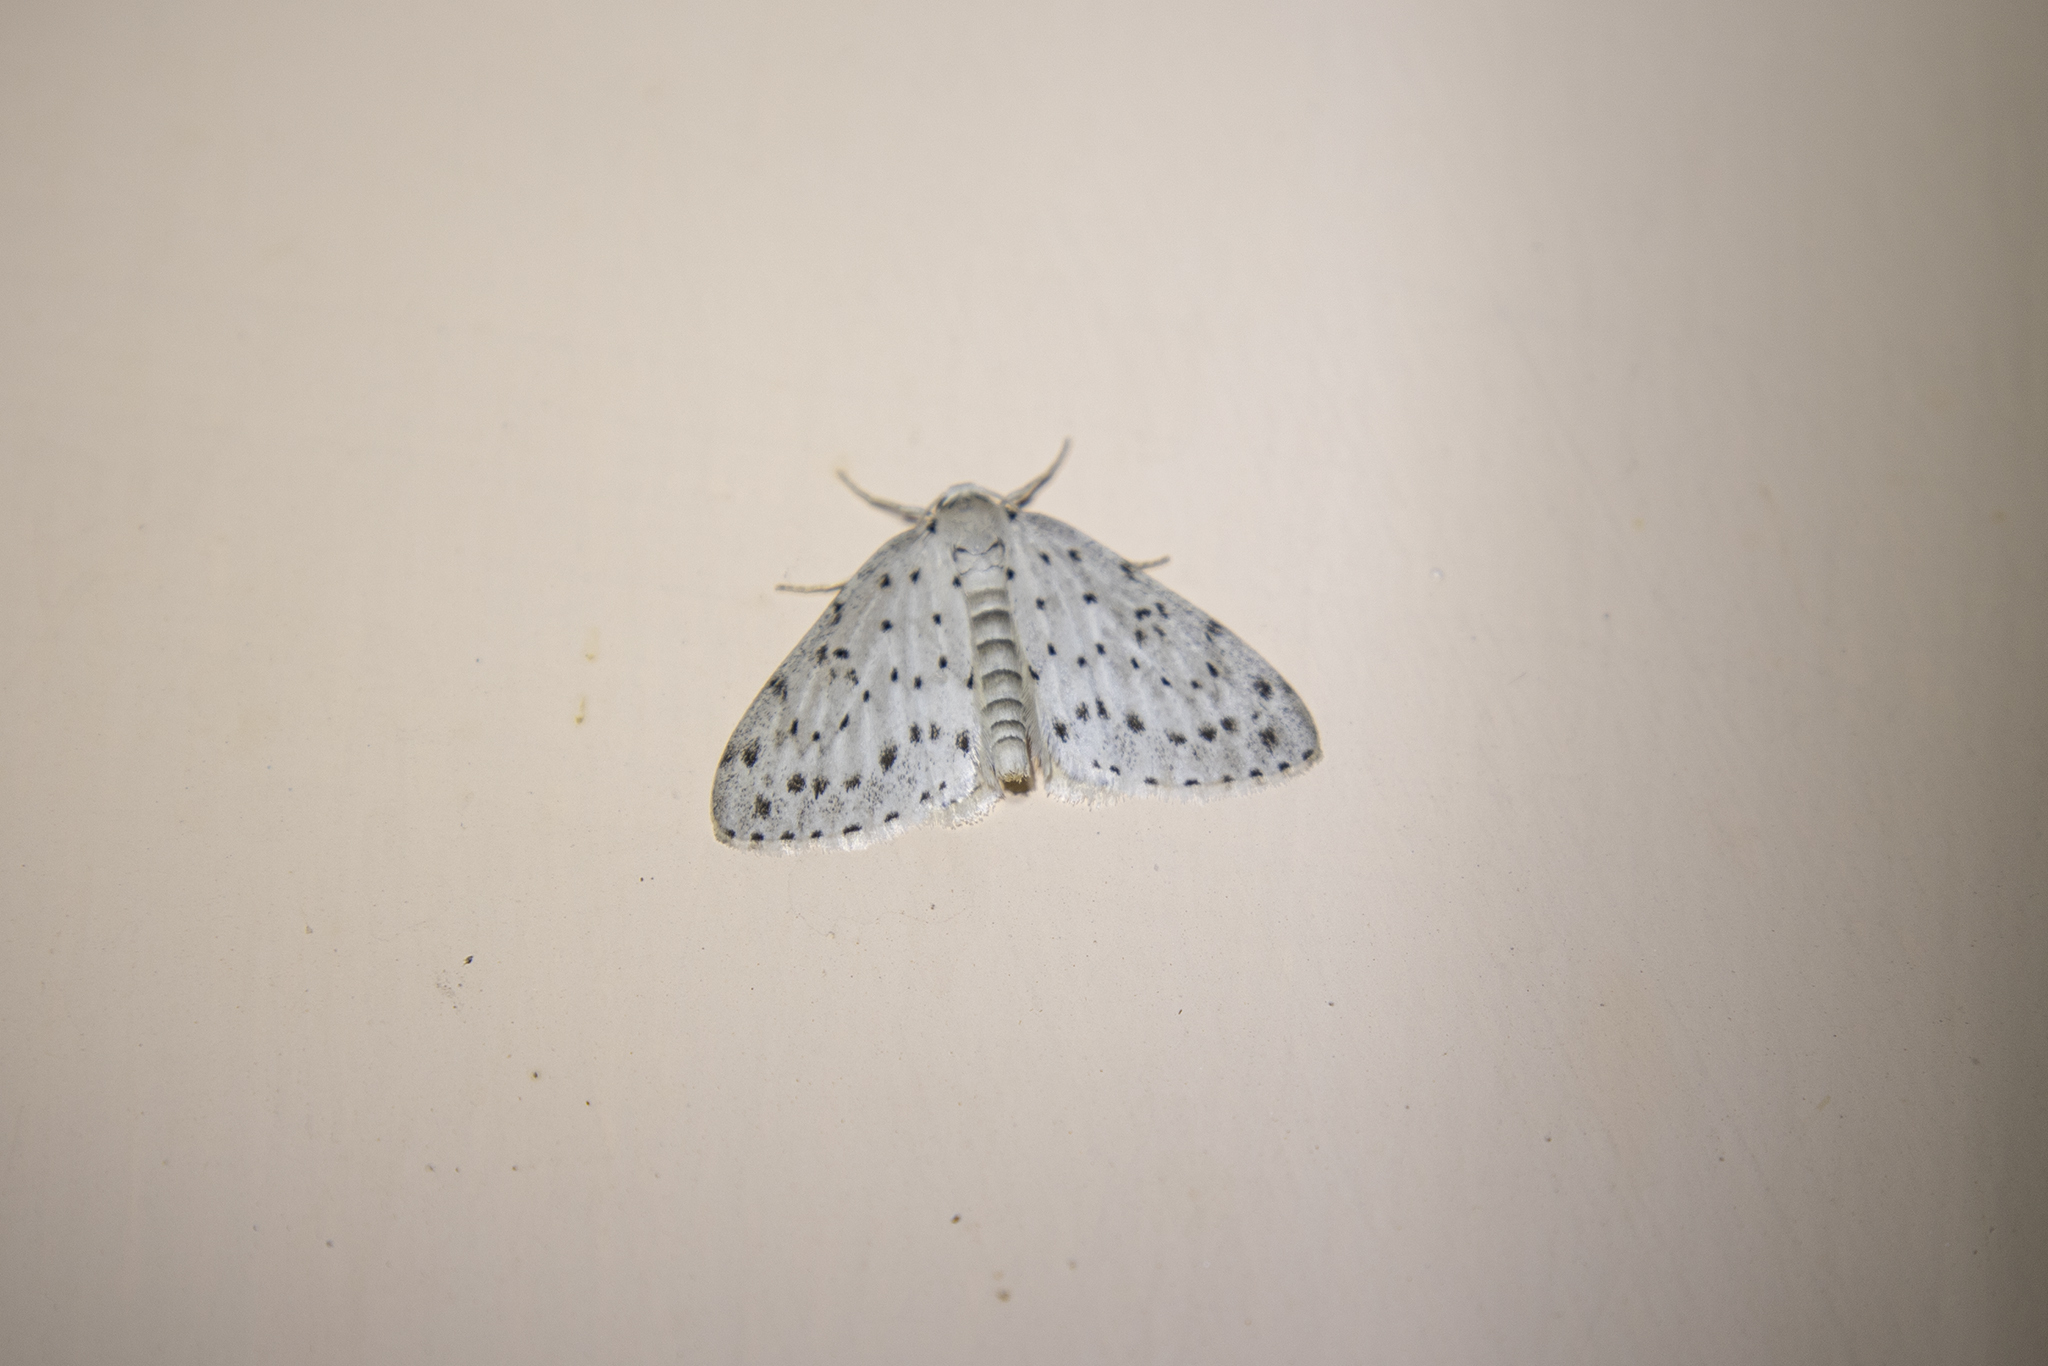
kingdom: Animalia
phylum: Arthropoda
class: Insecta
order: Lepidoptera
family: Geometridae
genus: Naxidia
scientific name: Naxidia punctata
